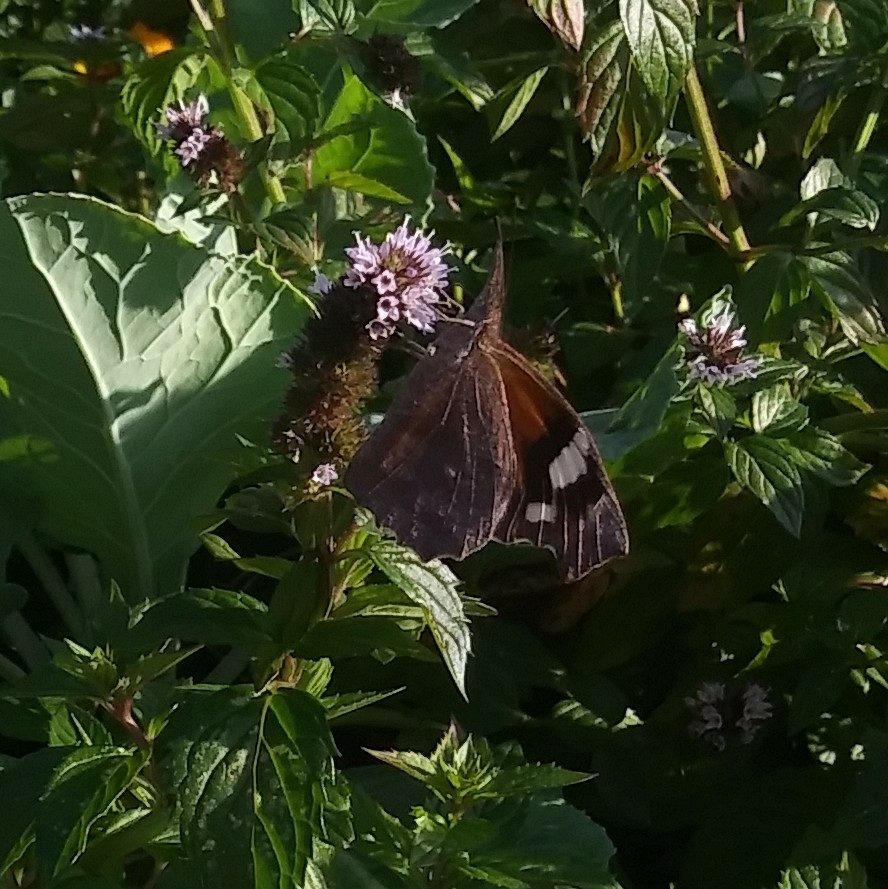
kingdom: Animalia
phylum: Arthropoda
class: Insecta
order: Lepidoptera
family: Nymphalidae
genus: Libytheana
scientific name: Libytheana carinenta
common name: American snout
